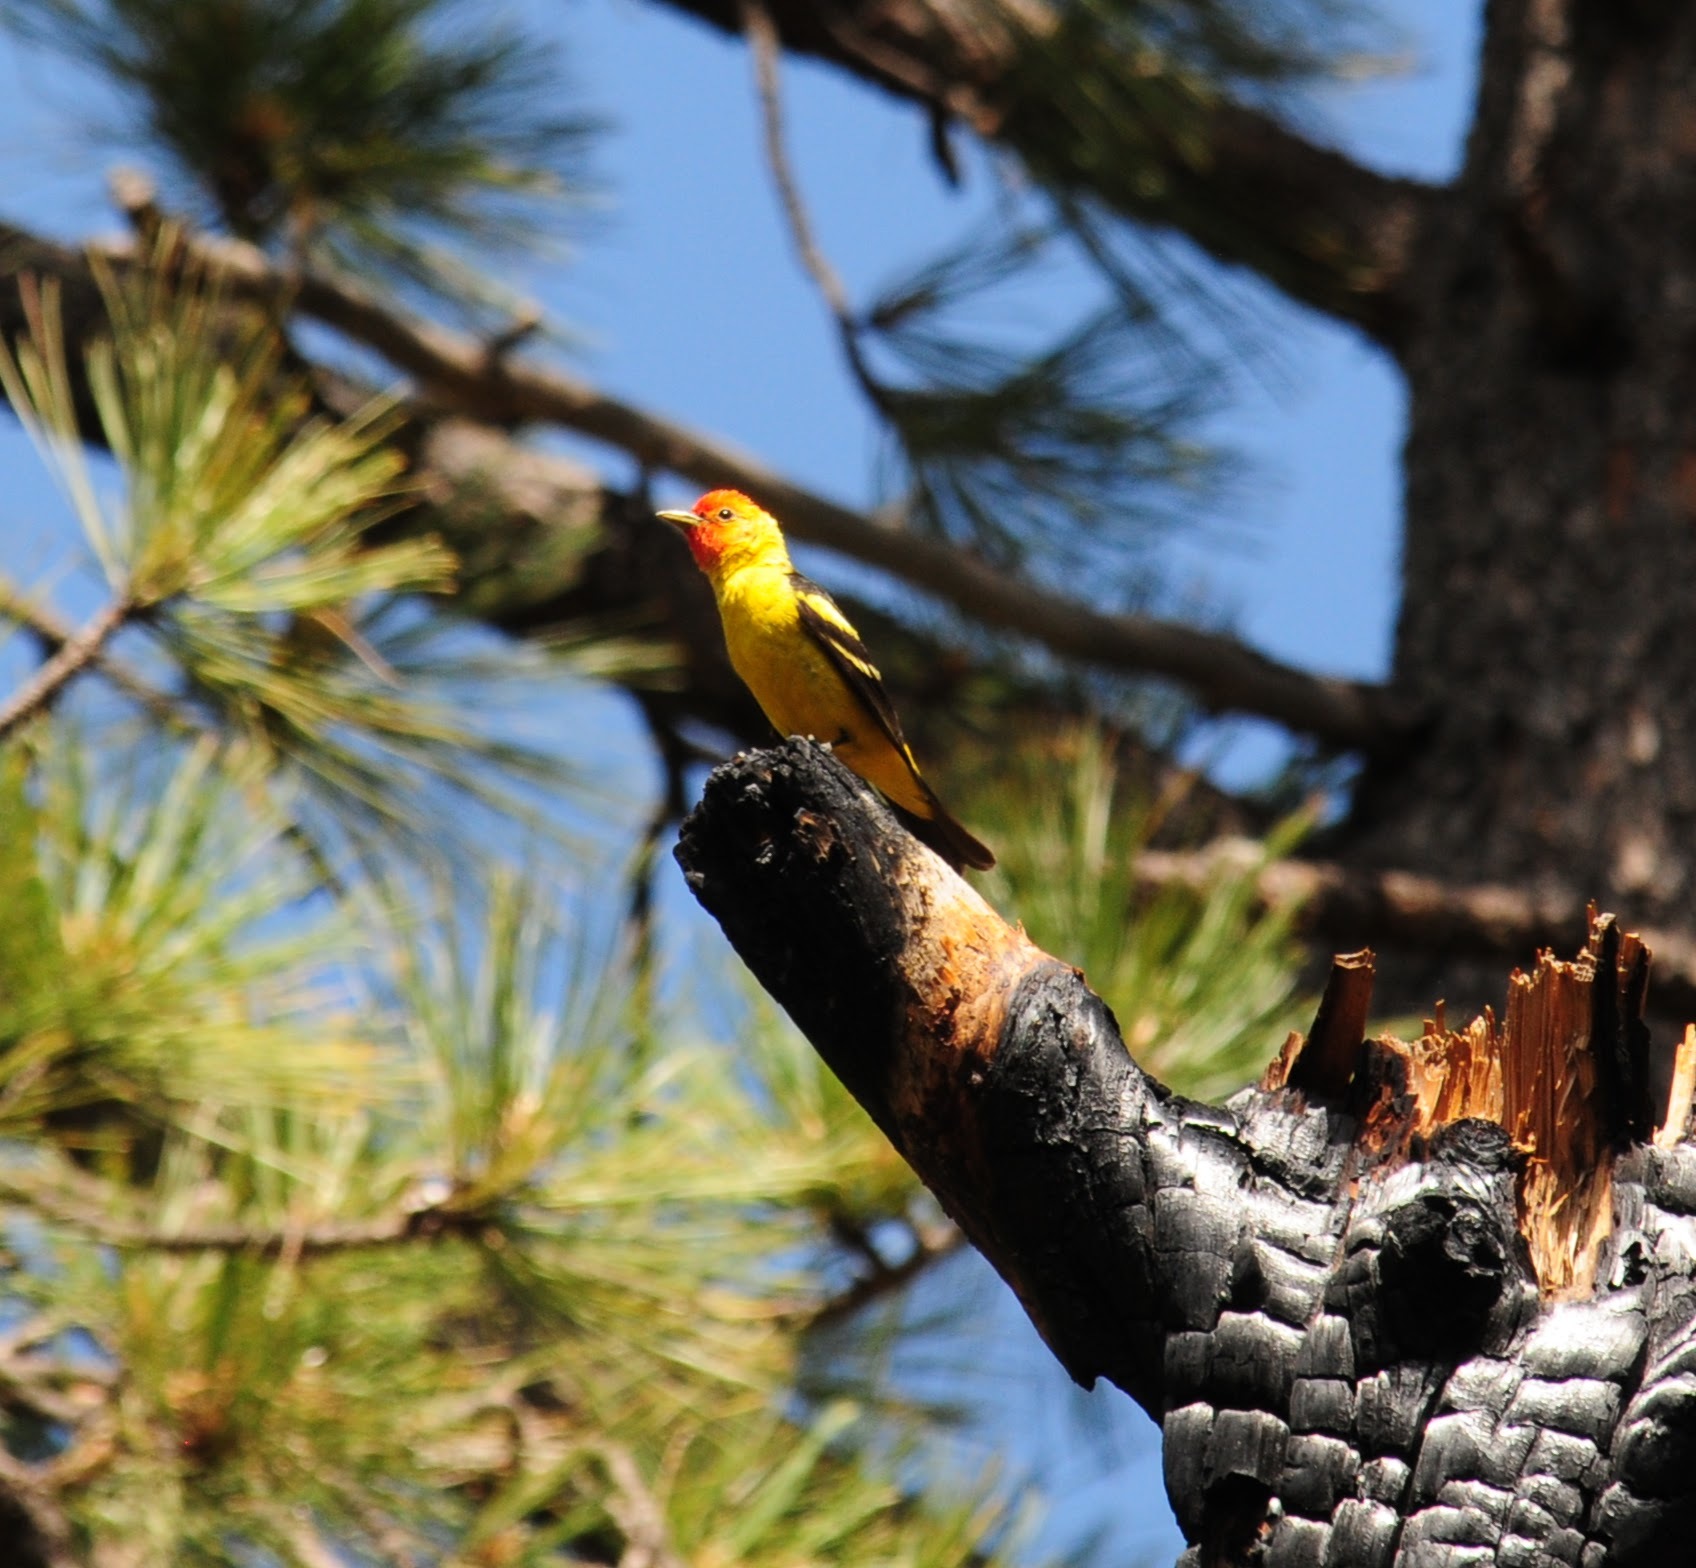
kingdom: Animalia
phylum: Chordata
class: Aves
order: Passeriformes
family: Cardinalidae
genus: Piranga
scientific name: Piranga ludoviciana
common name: Western tanager
